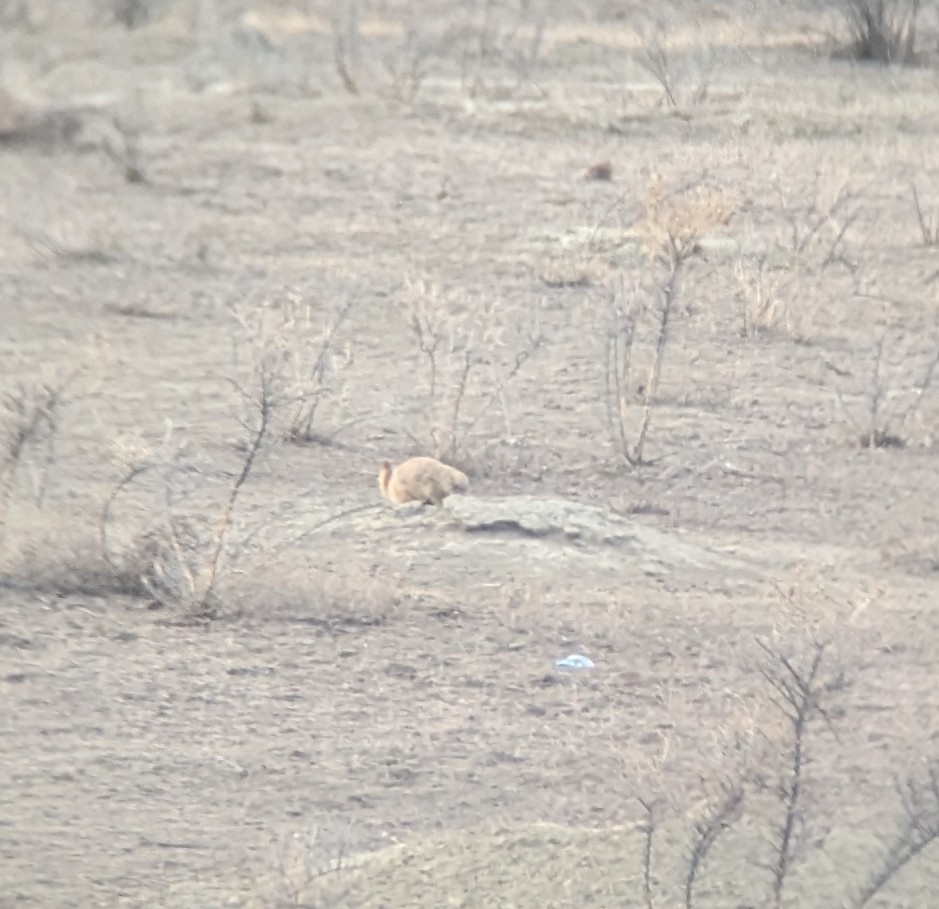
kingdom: Animalia
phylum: Chordata
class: Mammalia
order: Rodentia
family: Sciuridae
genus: Cynomys
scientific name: Cynomys ludovicianus
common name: Black-tailed prairie dog
